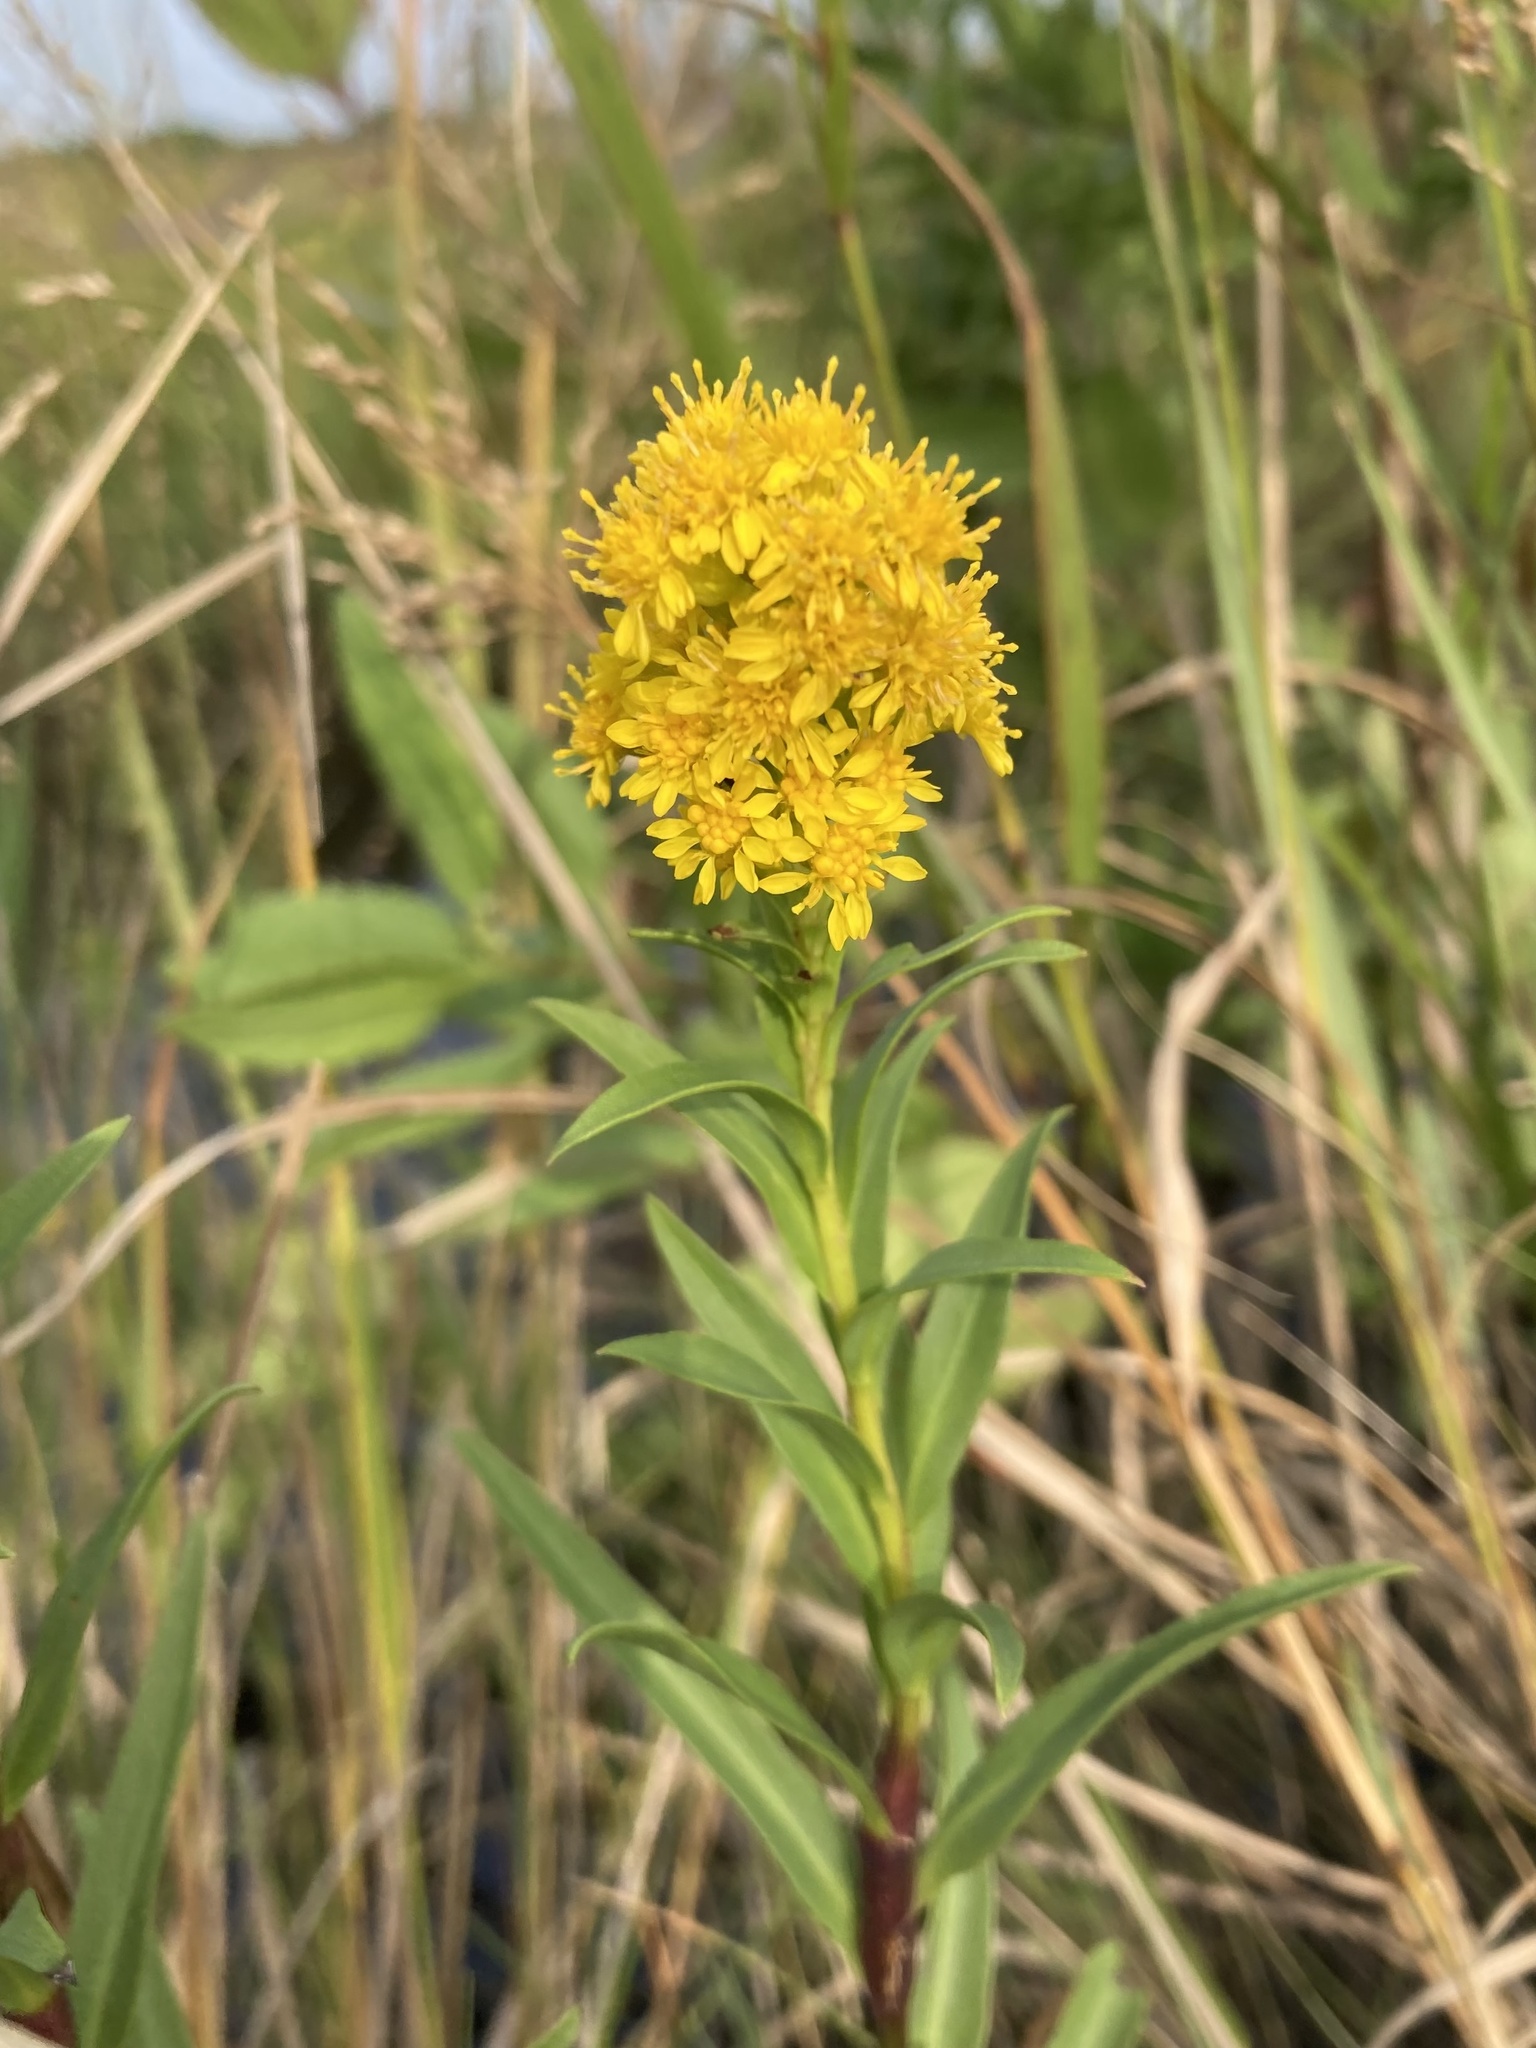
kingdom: Plantae
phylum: Tracheophyta
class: Magnoliopsida
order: Asterales
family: Asteraceae
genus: Solidago
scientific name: Solidago sempervirens
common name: Salt-marsh goldenrod
